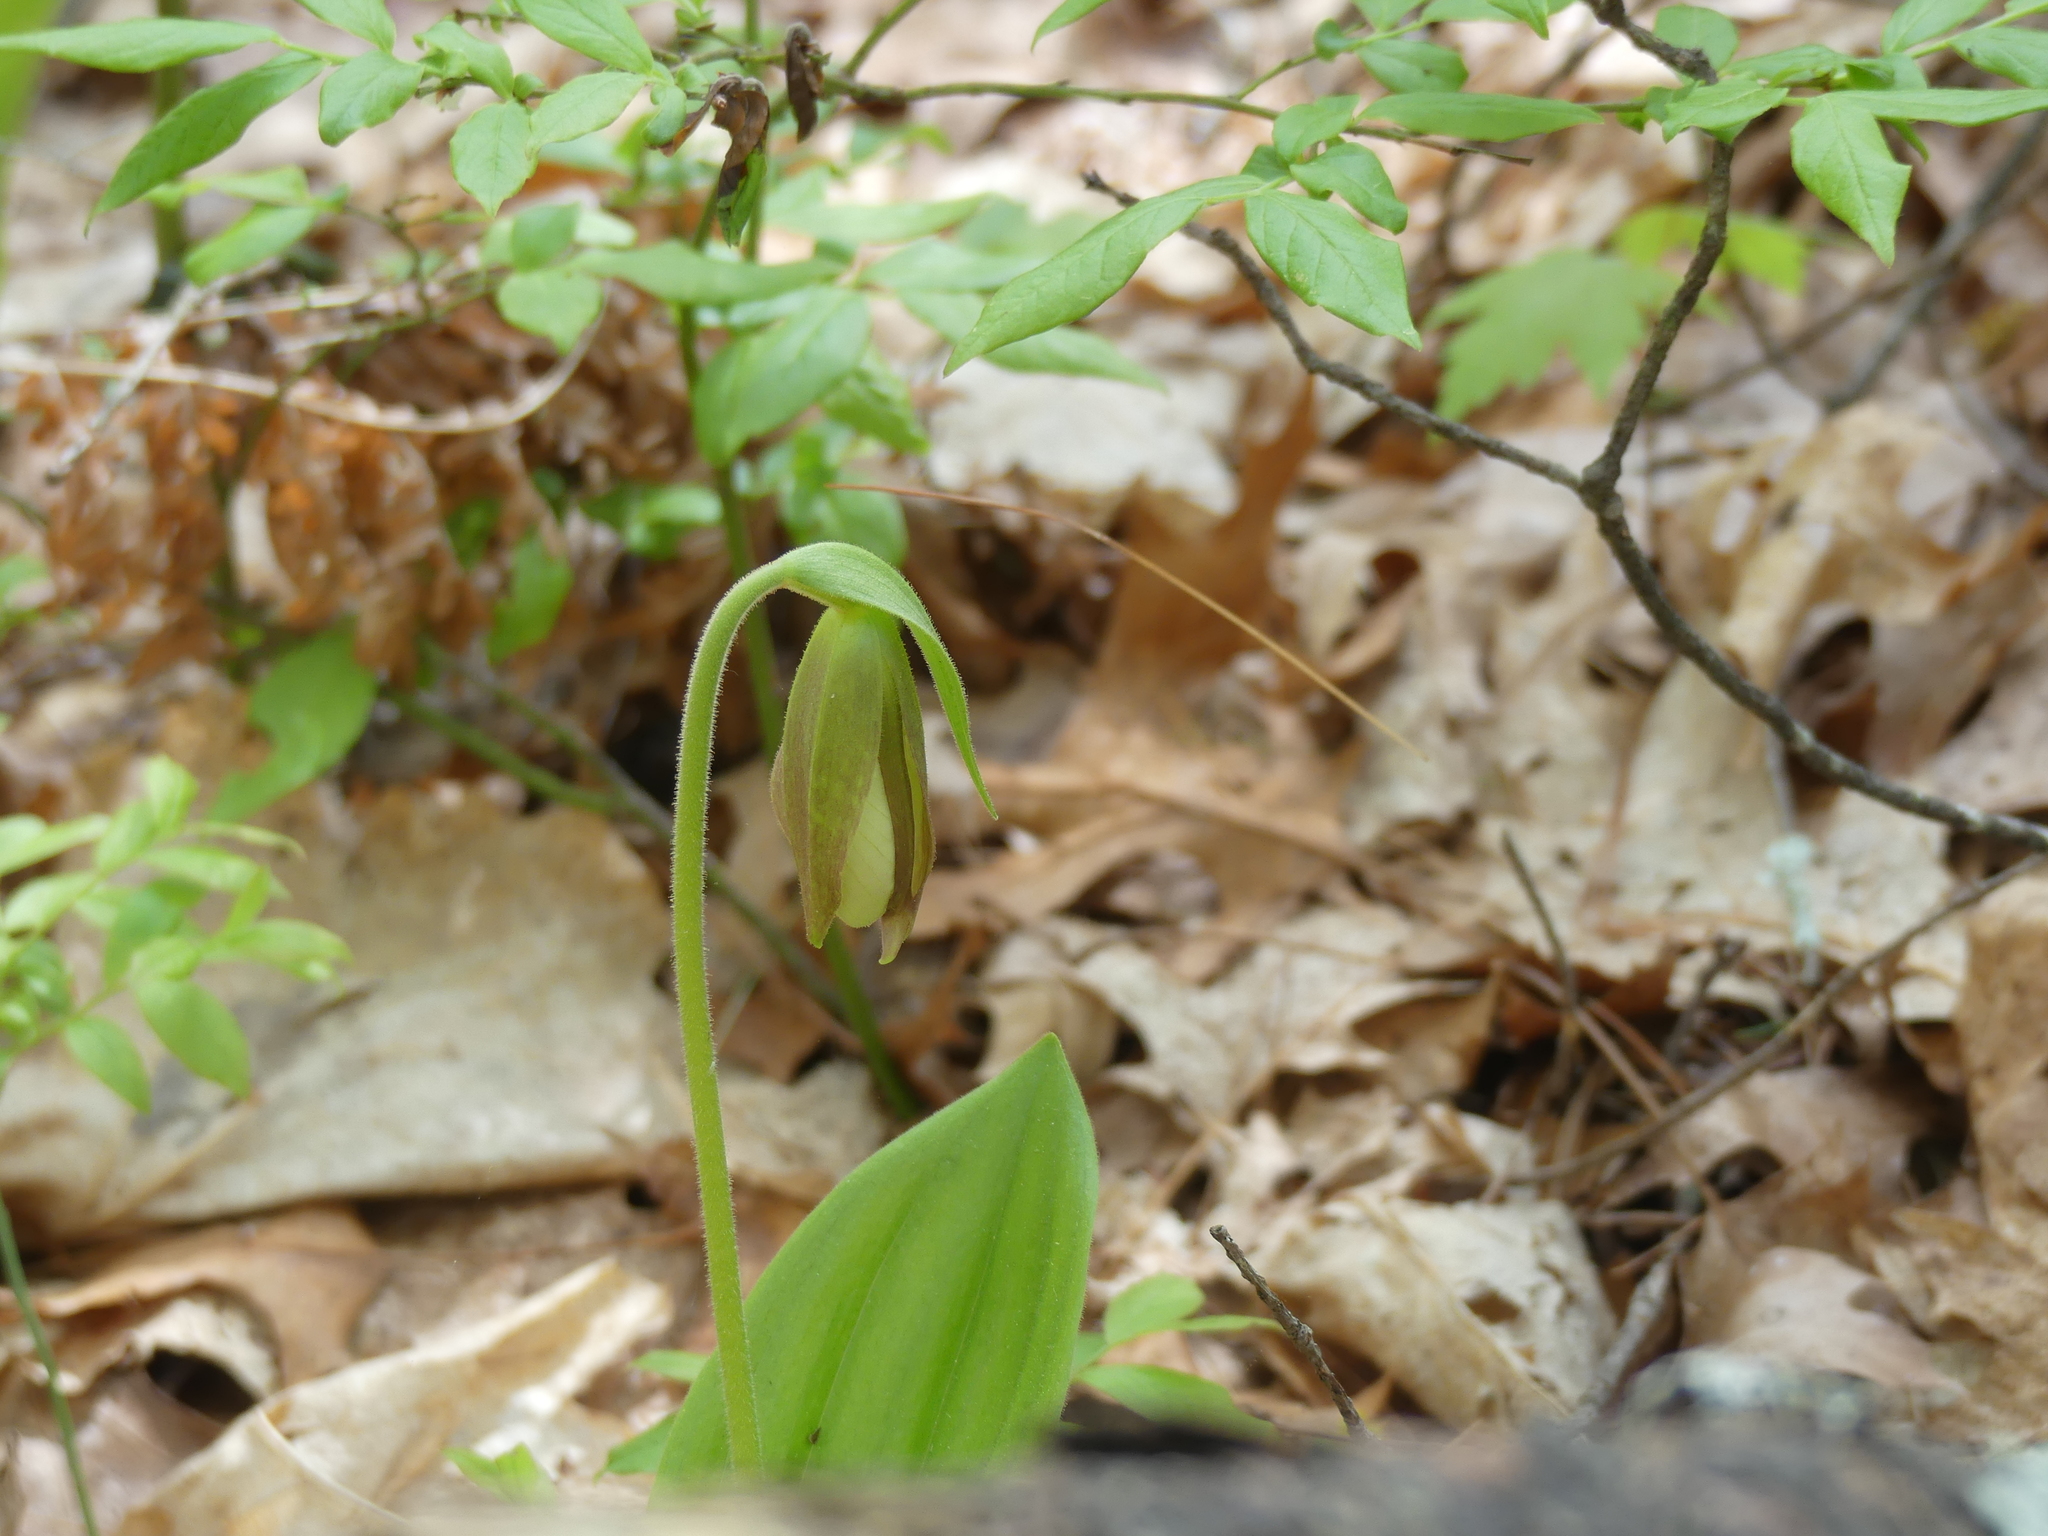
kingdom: Plantae
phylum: Tracheophyta
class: Liliopsida
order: Asparagales
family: Orchidaceae
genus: Cypripedium
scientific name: Cypripedium acaule
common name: Pink lady's-slipper
